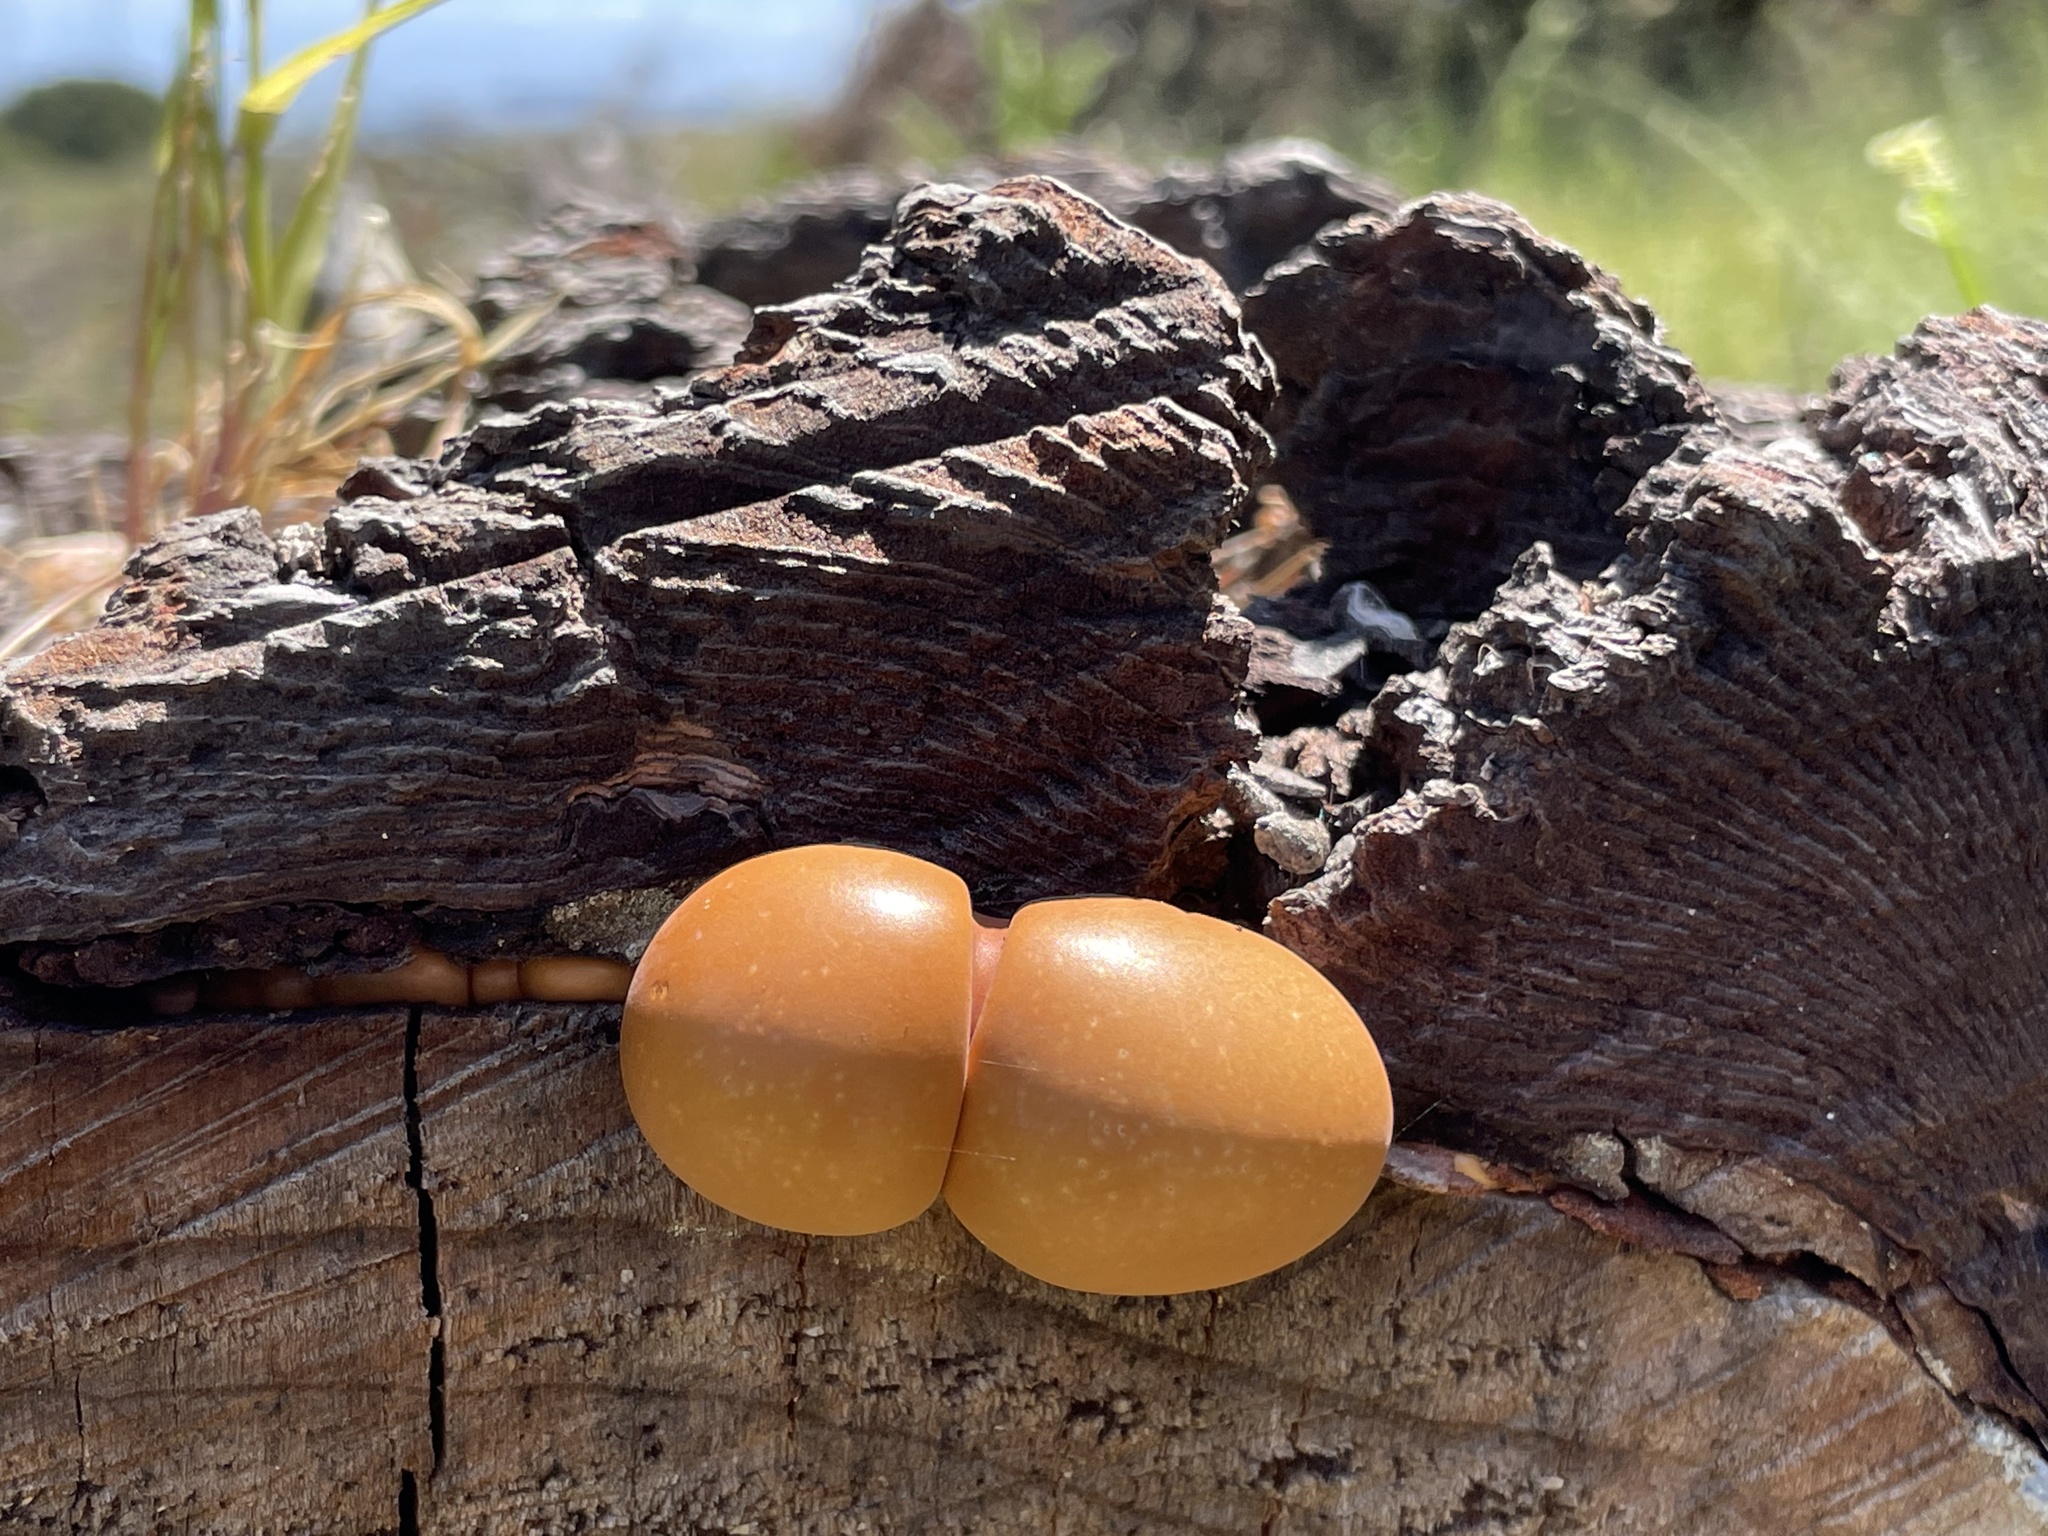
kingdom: Fungi
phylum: Basidiomycota
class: Agaricomycetes
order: Polyporales
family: Polyporaceae
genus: Cryptoporus
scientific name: Cryptoporus volvatus
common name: Veiled polypore
